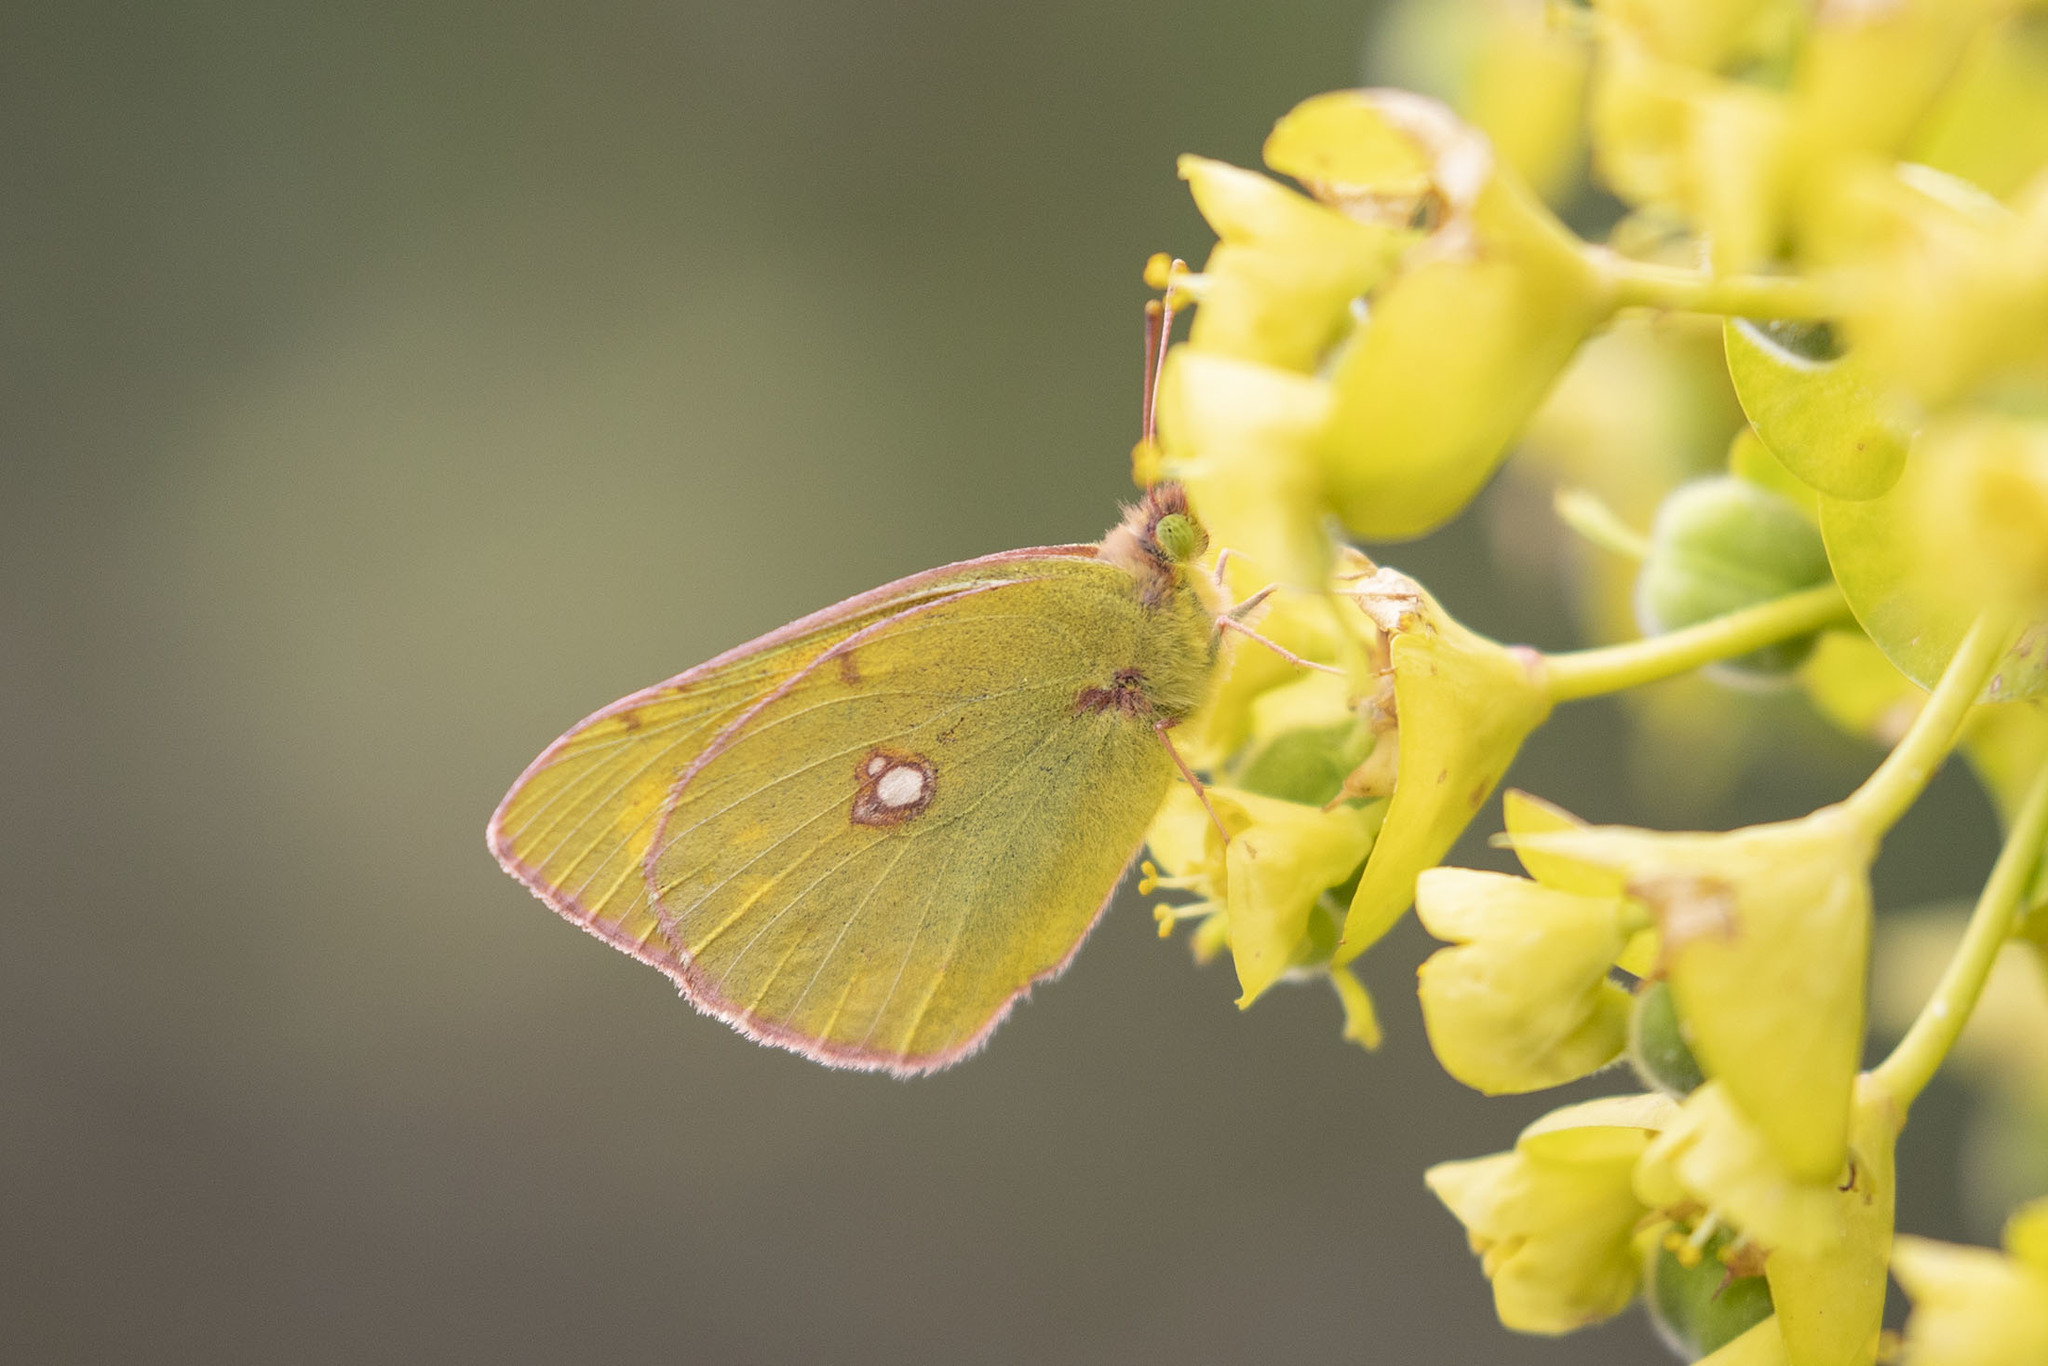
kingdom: Animalia
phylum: Arthropoda
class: Insecta
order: Lepidoptera
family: Pieridae
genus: Colias
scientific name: Colias croceus
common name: Clouded yellow
